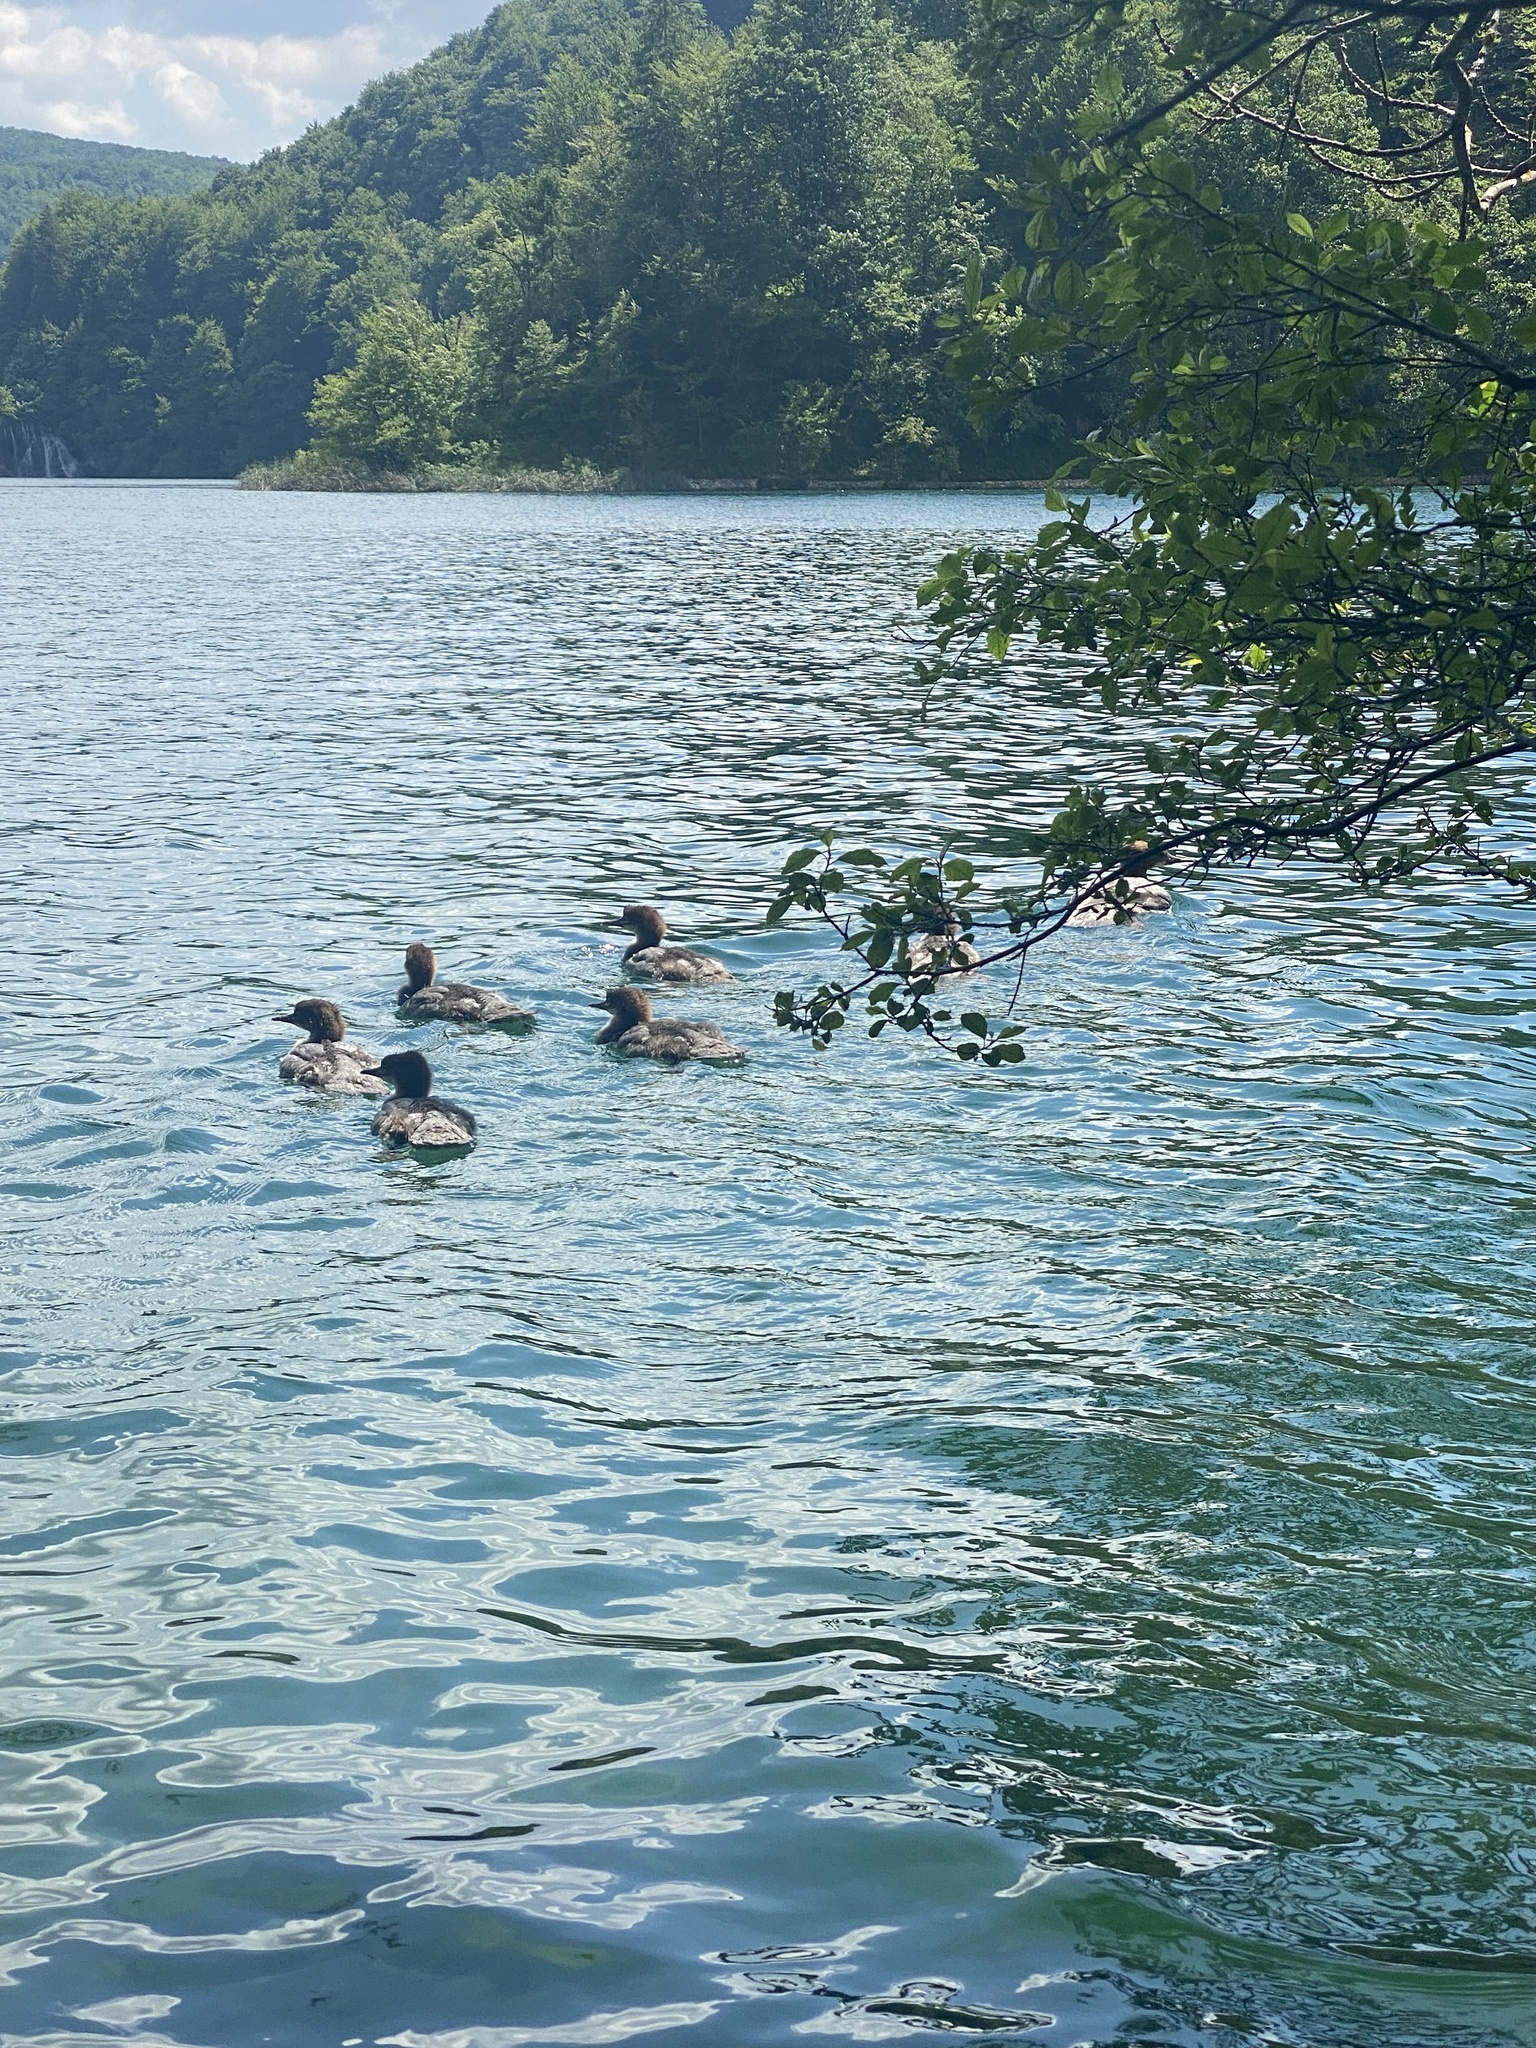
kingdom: Animalia
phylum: Chordata
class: Aves
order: Anseriformes
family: Anatidae
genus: Mergus
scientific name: Mergus merganser
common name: Common merganser
